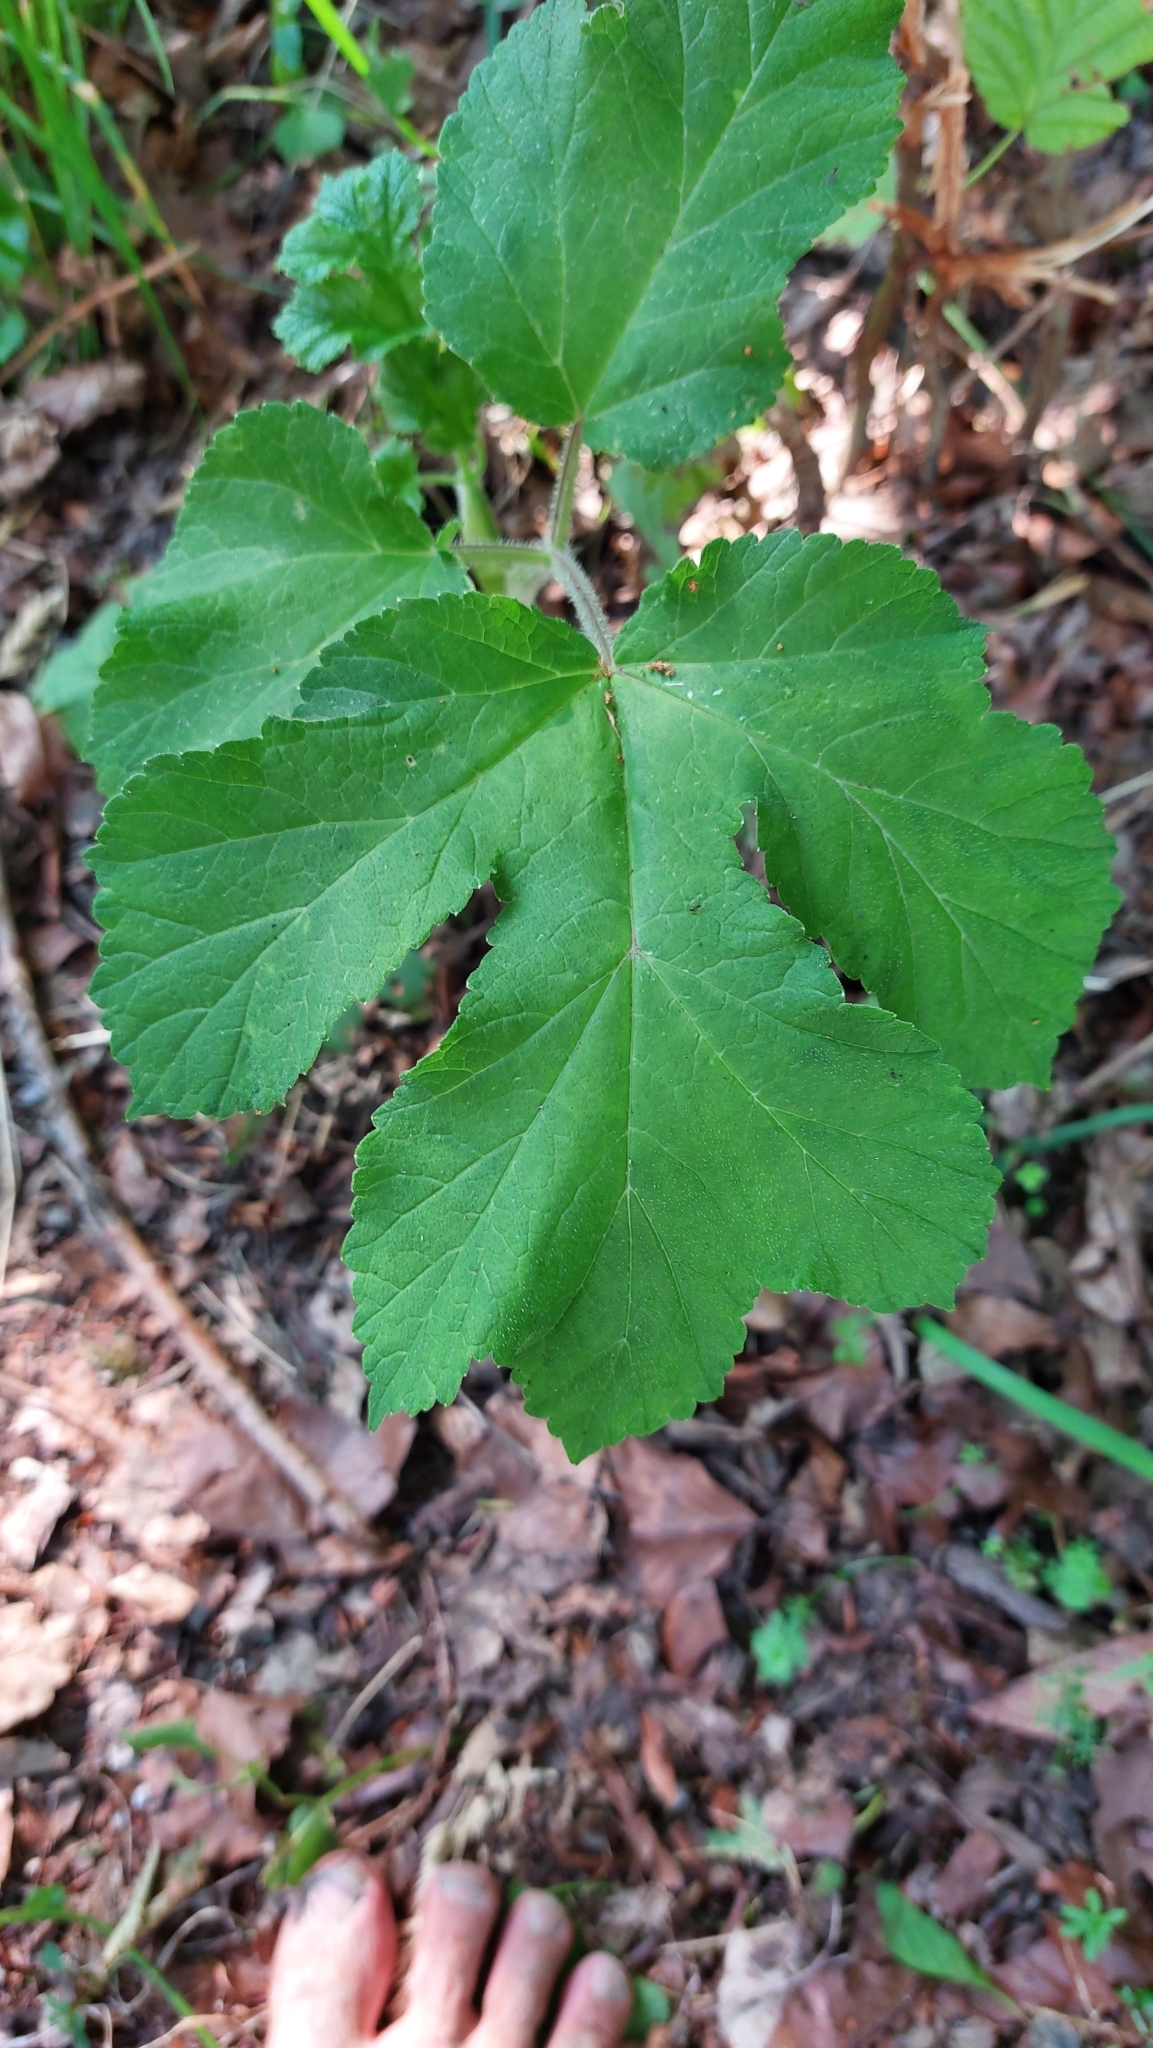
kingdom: Plantae
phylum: Tracheophyta
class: Magnoliopsida
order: Apiales
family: Apiaceae
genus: Heracleum
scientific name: Heracleum sphondylium
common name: Hogweed
